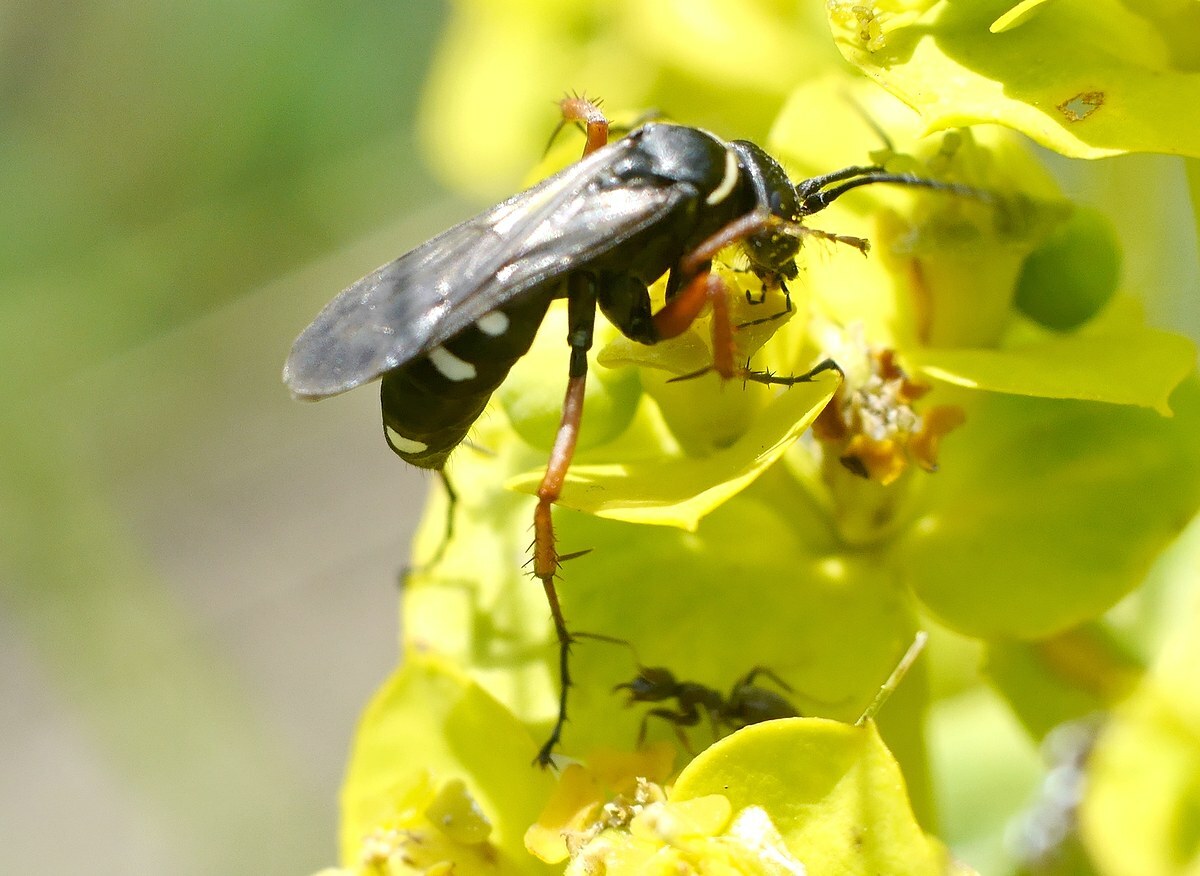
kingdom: Animalia
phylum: Arthropoda
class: Insecta
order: Hymenoptera
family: Pompilidae
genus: Episyron
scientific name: Episyron albonotatum
